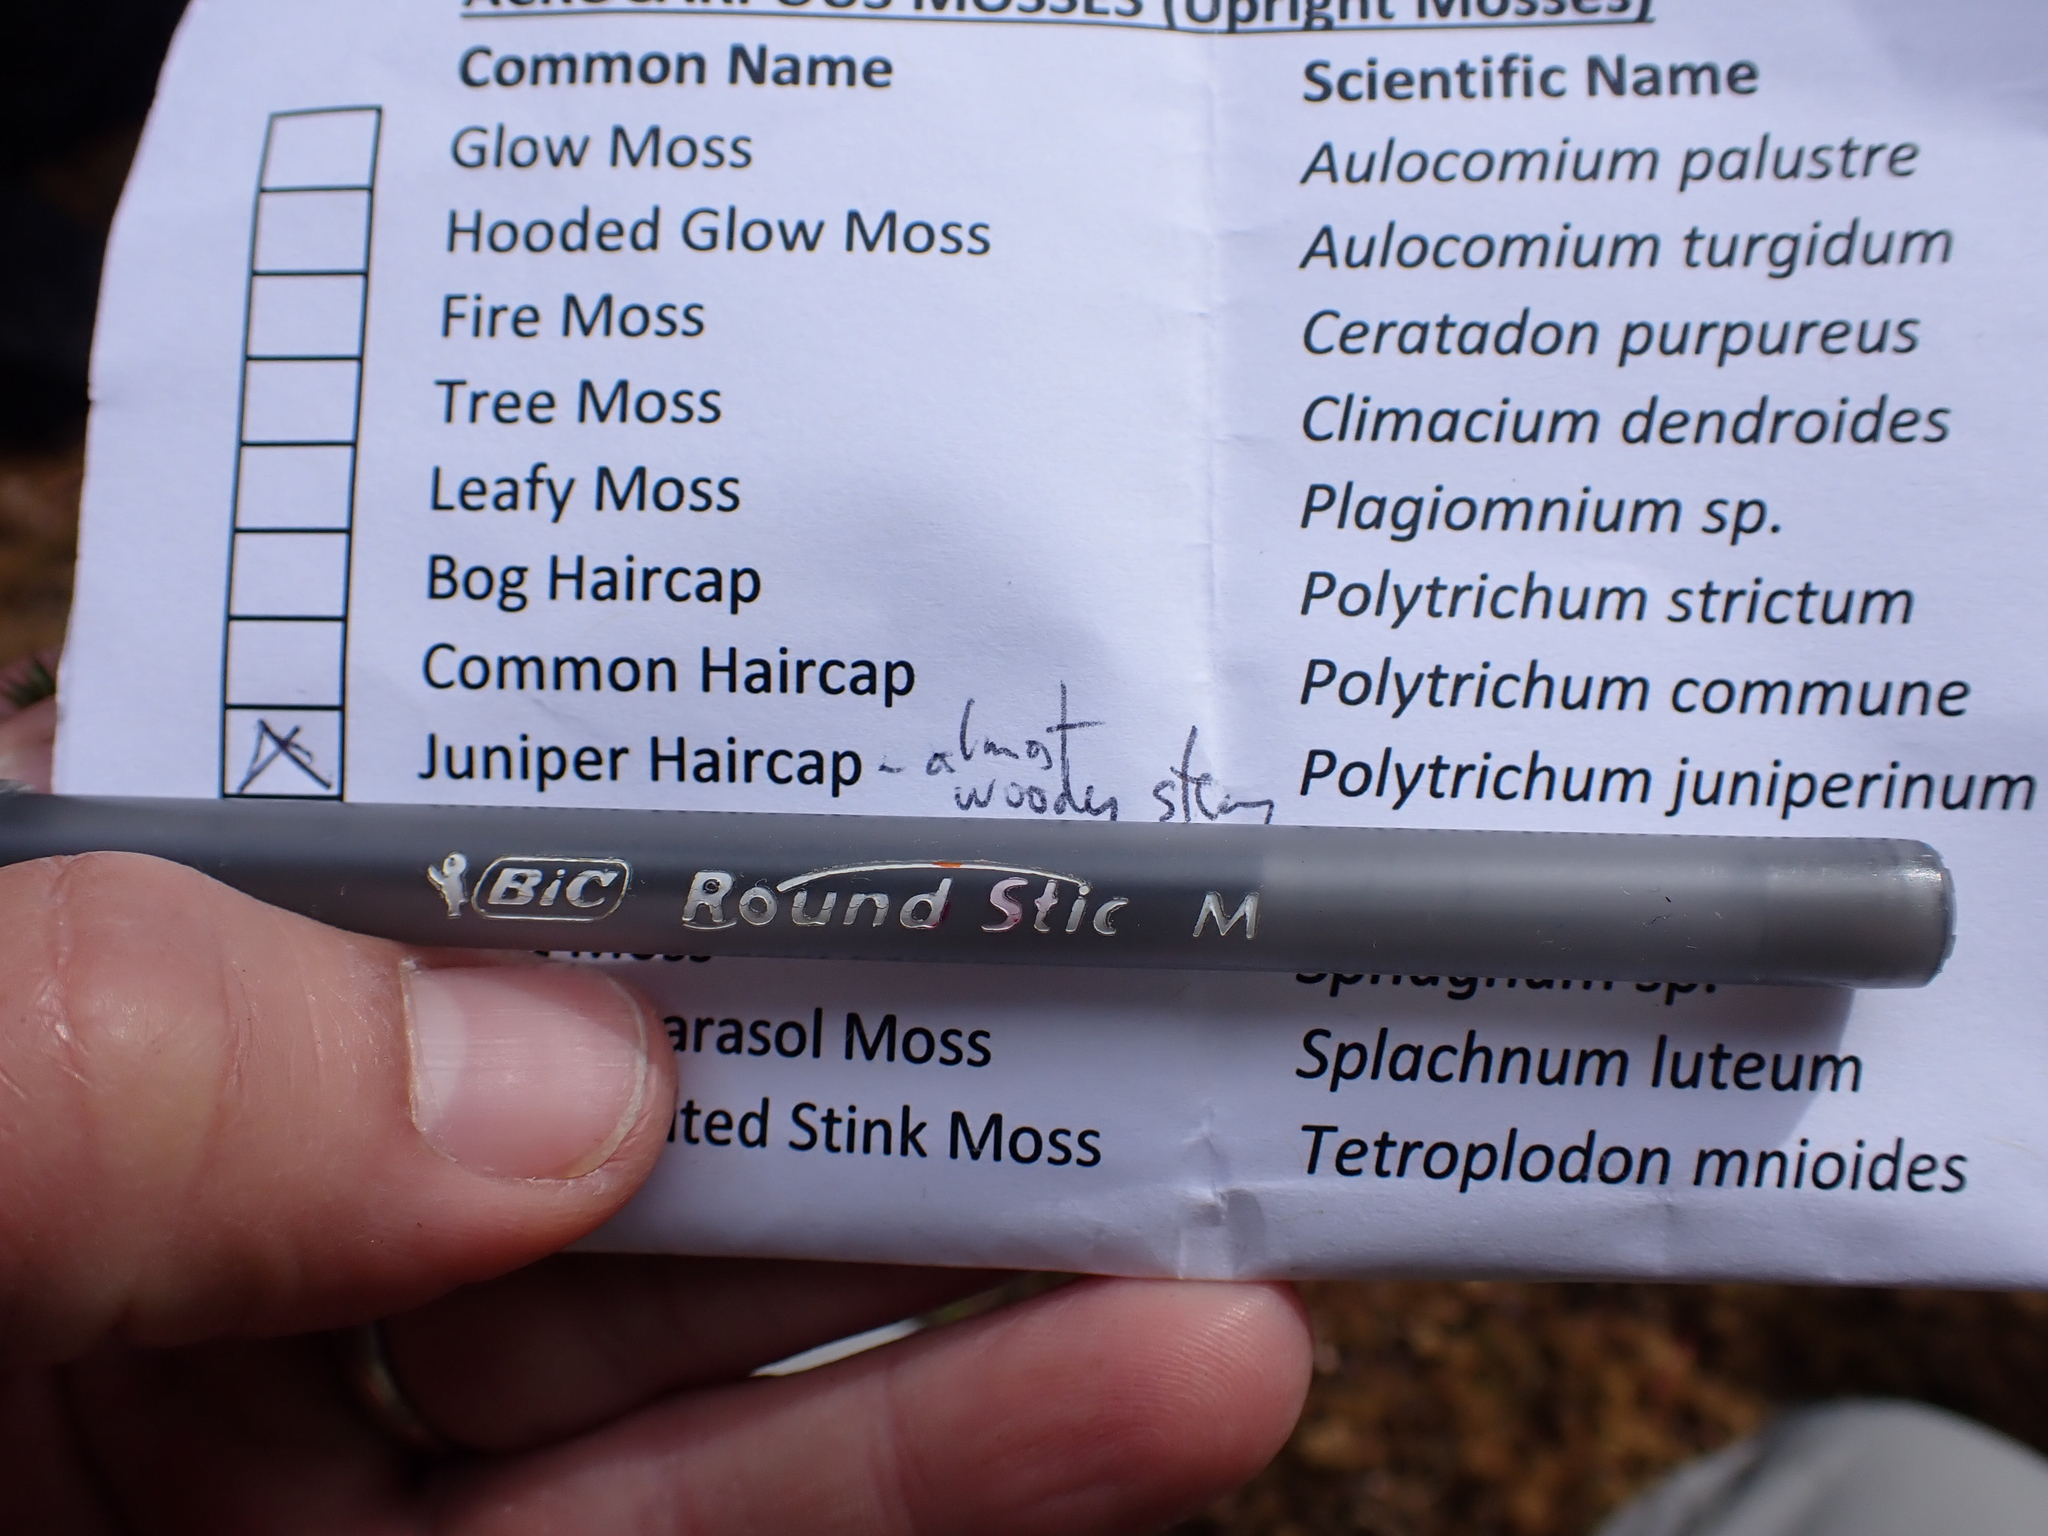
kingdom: Plantae
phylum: Bryophyta
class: Polytrichopsida
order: Polytrichales
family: Polytrichaceae
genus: Polytrichum
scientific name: Polytrichum juniperinum
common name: Juniper haircap moss
